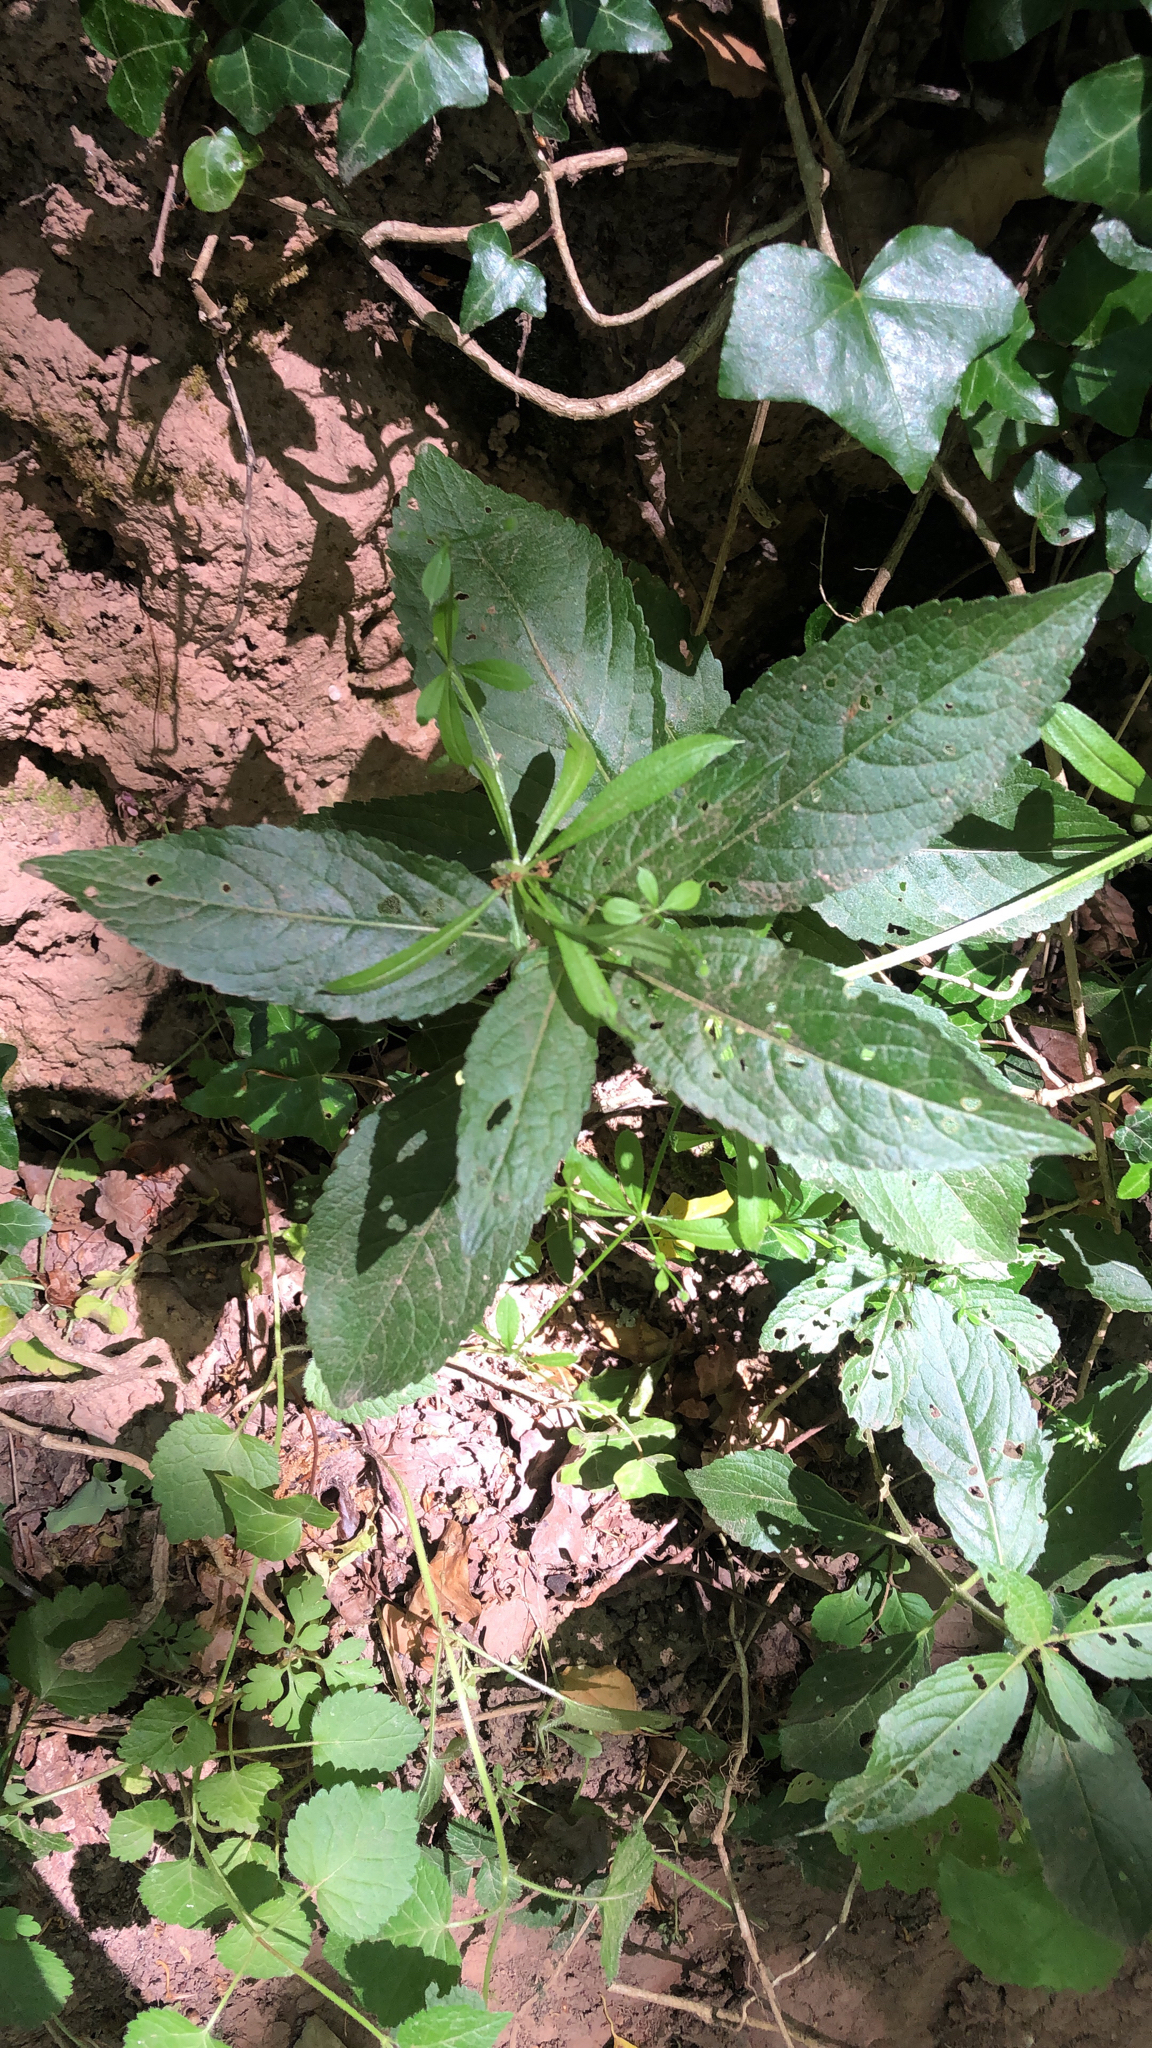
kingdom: Plantae
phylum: Tracheophyta
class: Magnoliopsida
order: Malpighiales
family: Euphorbiaceae
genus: Mercurialis
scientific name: Mercurialis perennis
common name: Dog mercury
